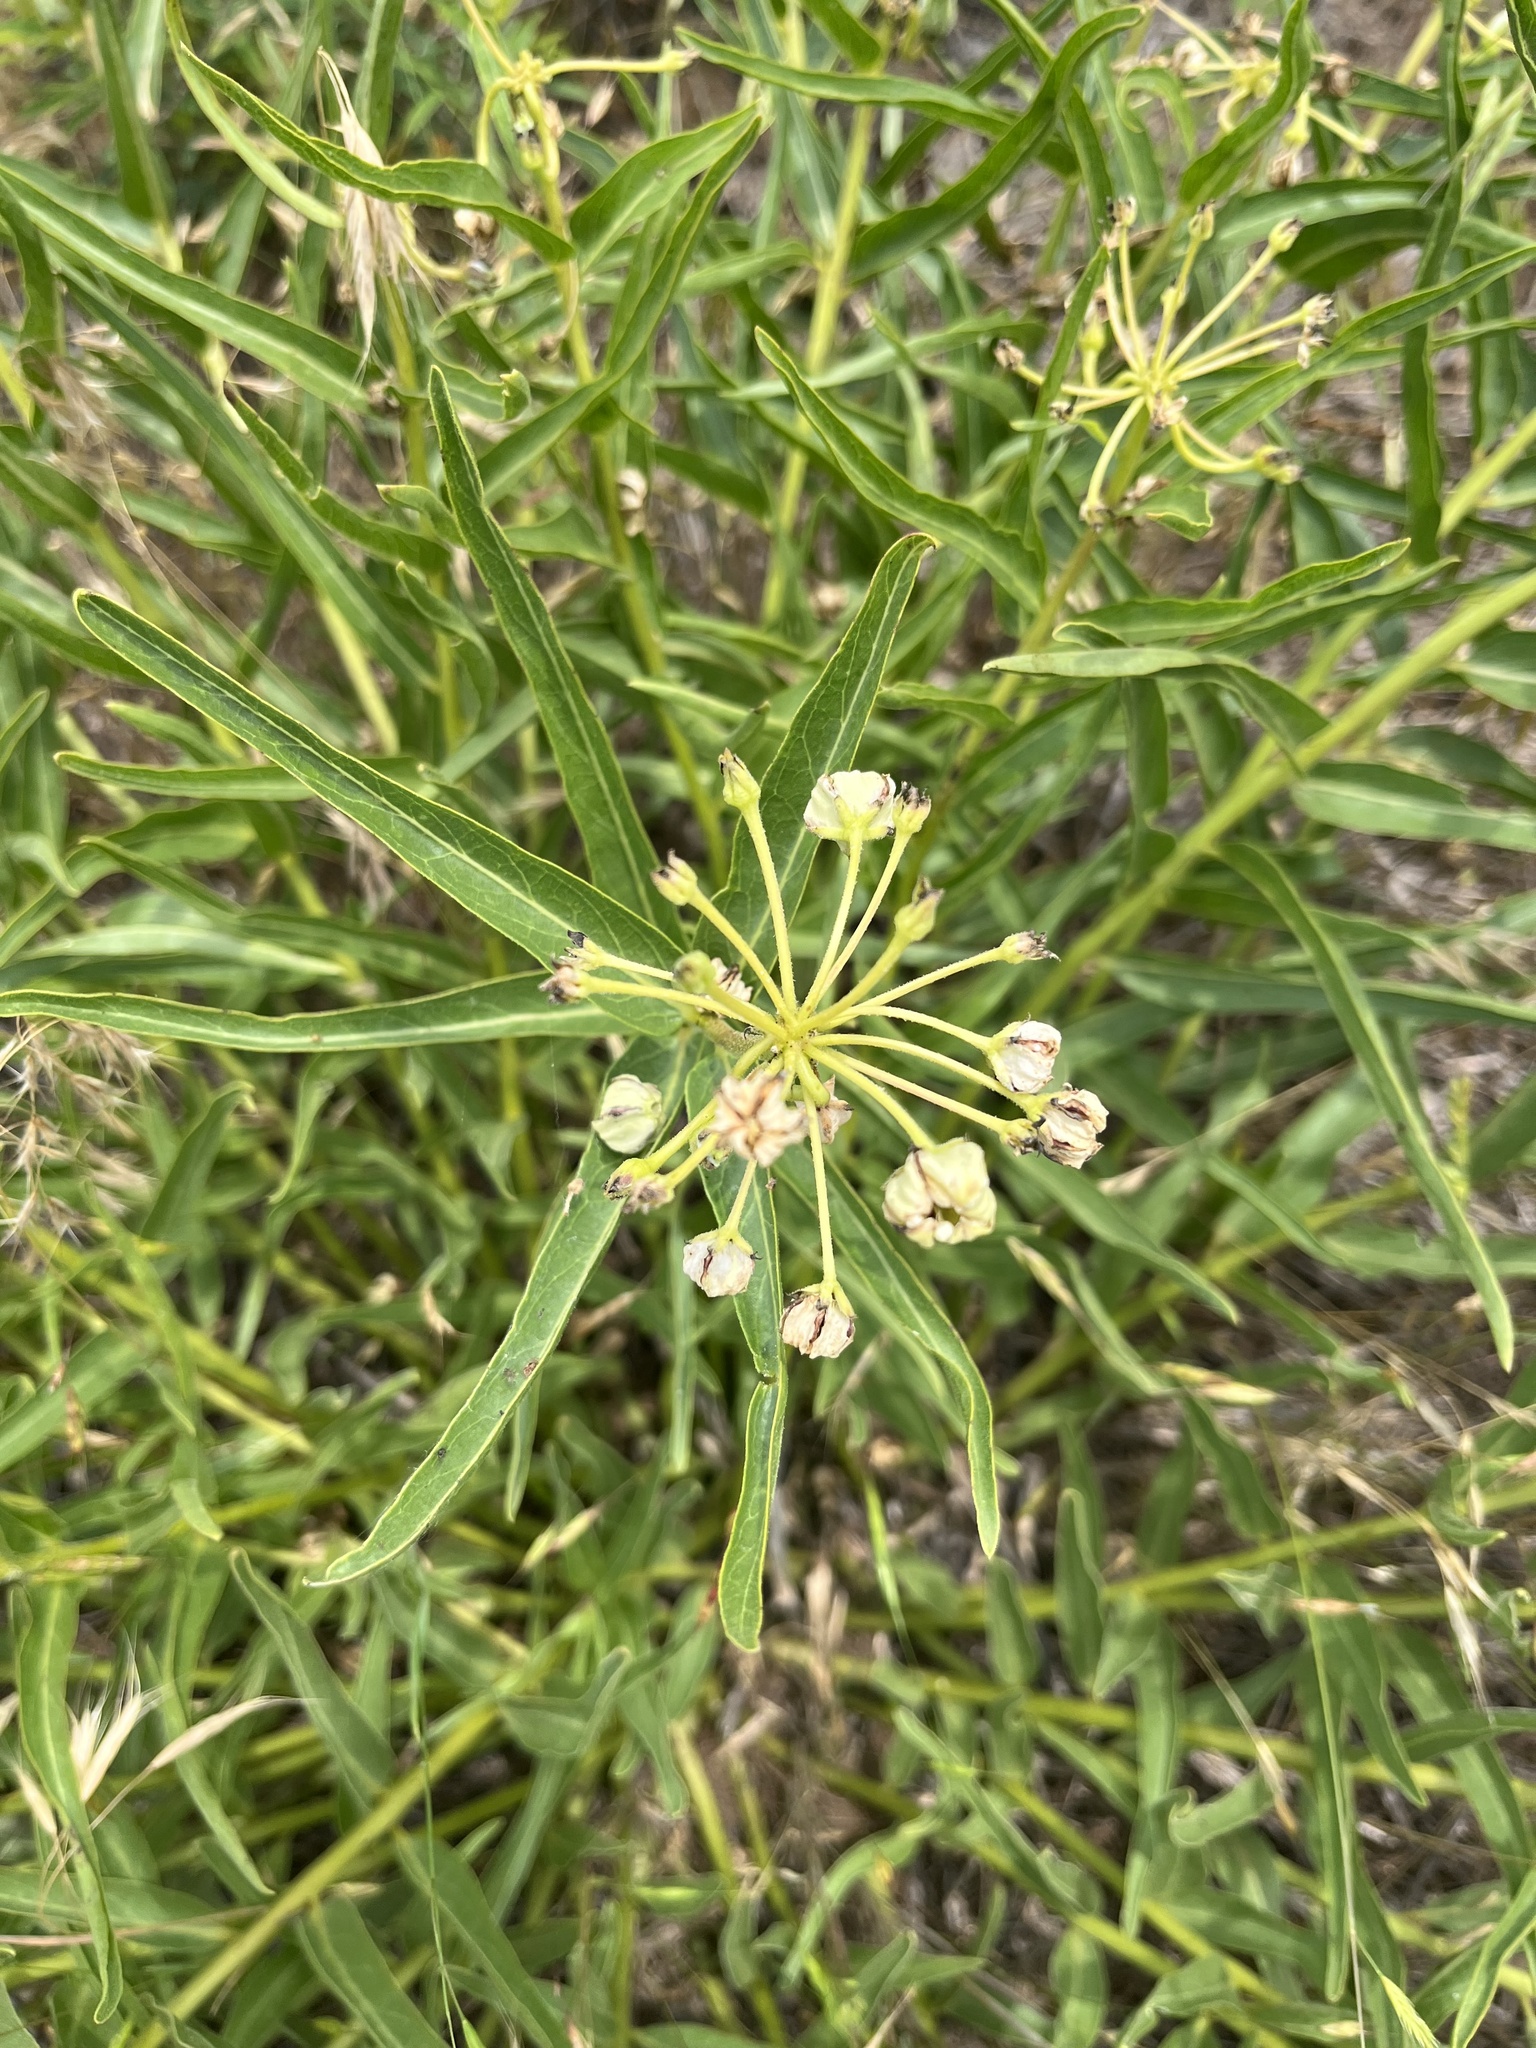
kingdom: Plantae
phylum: Tracheophyta
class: Magnoliopsida
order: Gentianales
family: Apocynaceae
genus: Asclepias
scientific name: Asclepias asperula
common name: Antelope horns
